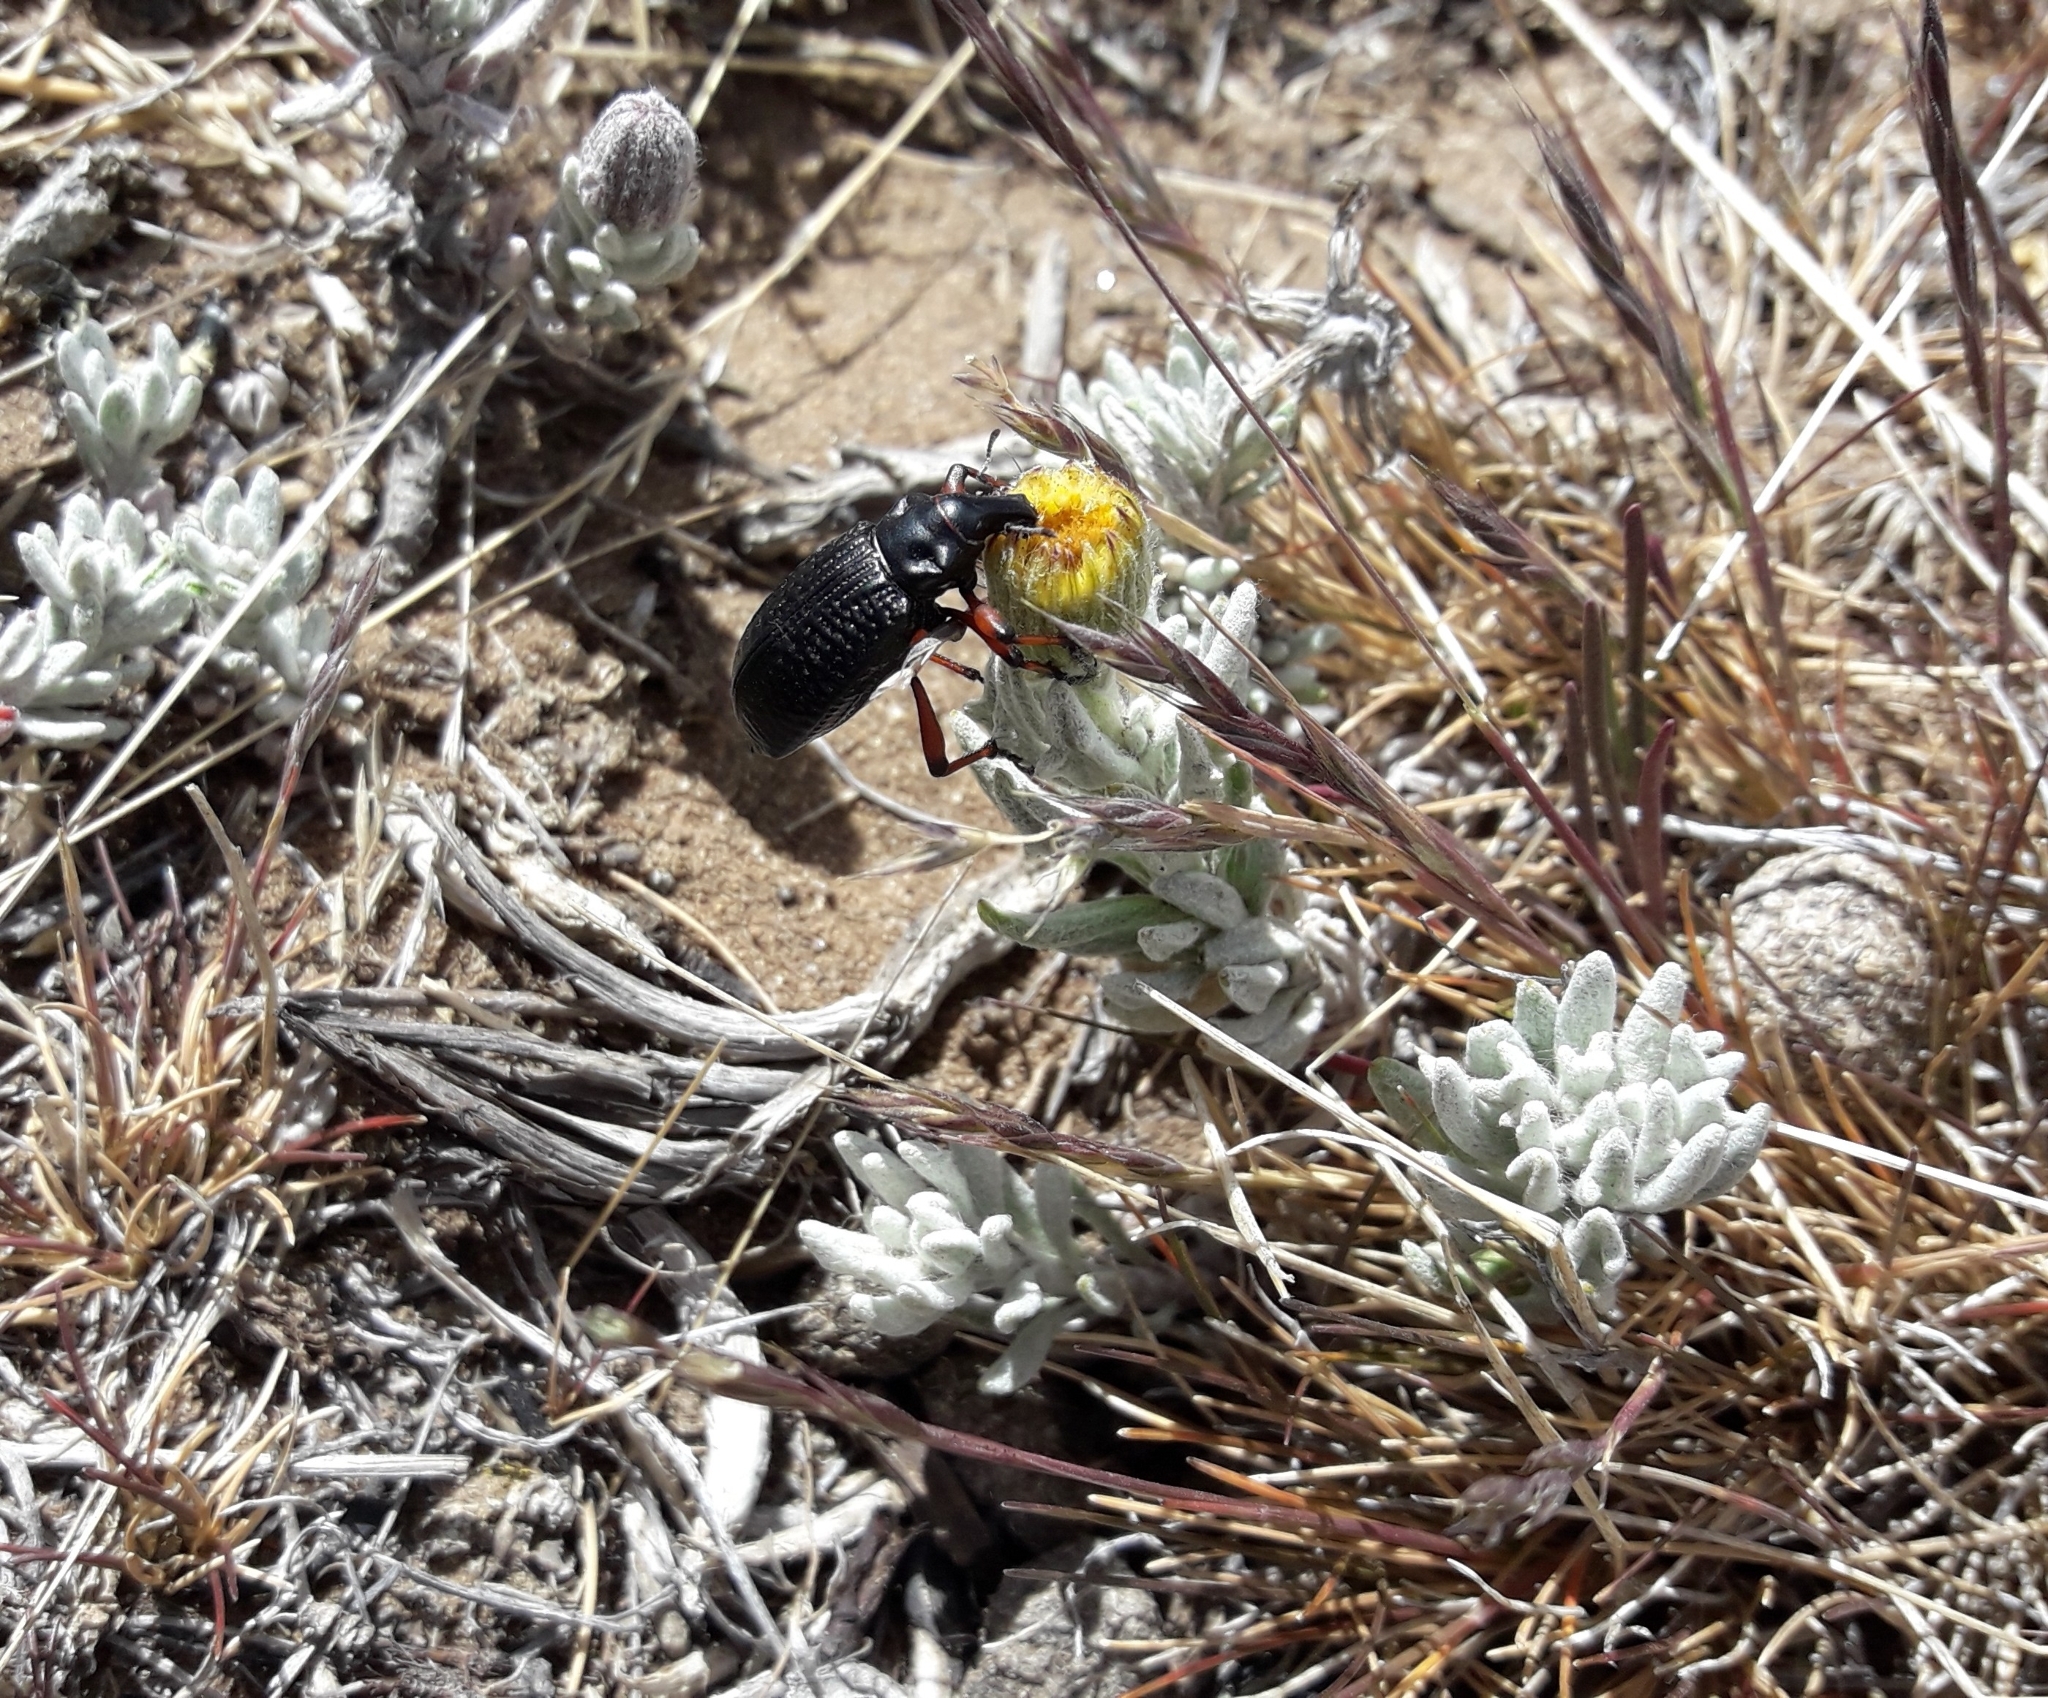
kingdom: Animalia
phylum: Arthropoda
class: Insecta
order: Coleoptera
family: Curculionidae
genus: Cylydrorhinus
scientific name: Cylydrorhinus angulatus
